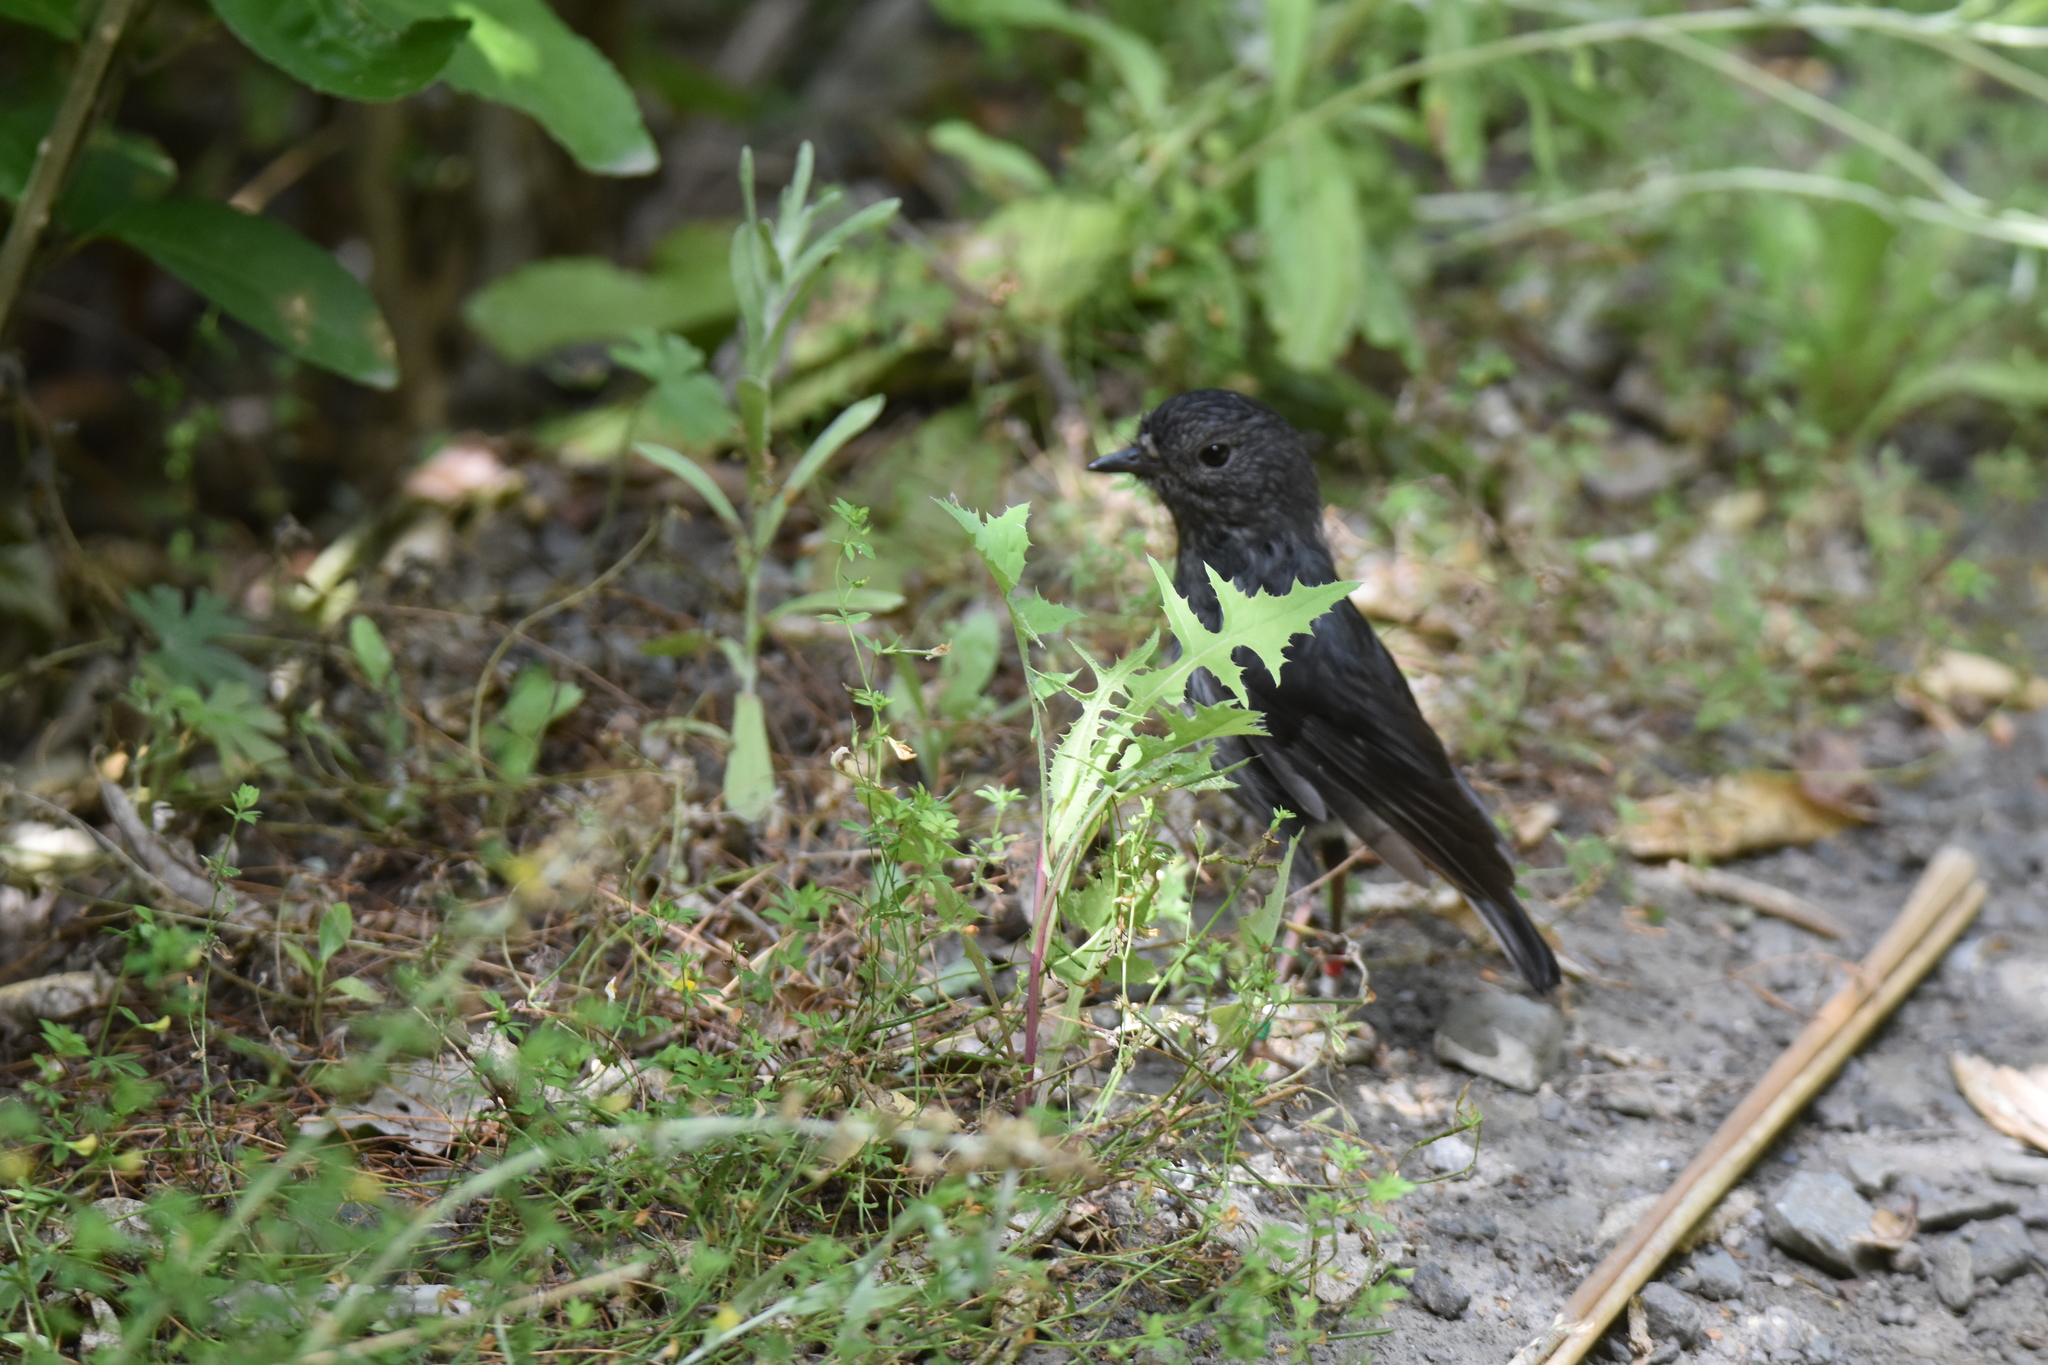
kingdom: Animalia
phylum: Chordata
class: Aves
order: Passeriformes
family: Petroicidae
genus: Petroica
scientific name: Petroica australis
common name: New zealand robin
